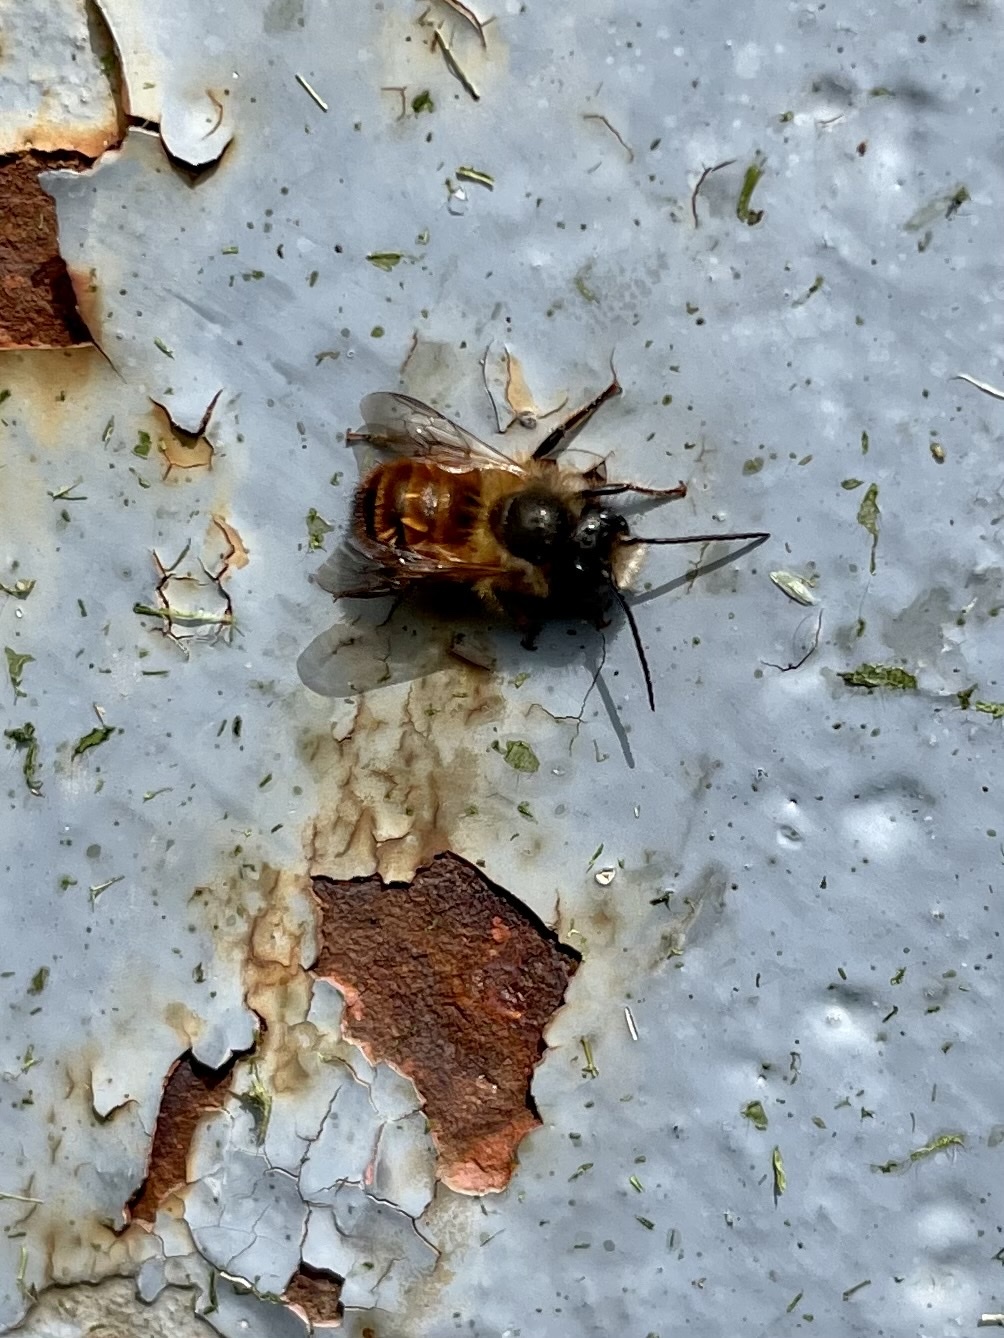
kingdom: Animalia
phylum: Arthropoda
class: Insecta
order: Hymenoptera
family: Megachilidae
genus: Osmia
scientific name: Osmia bicornis
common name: Red mason bee
